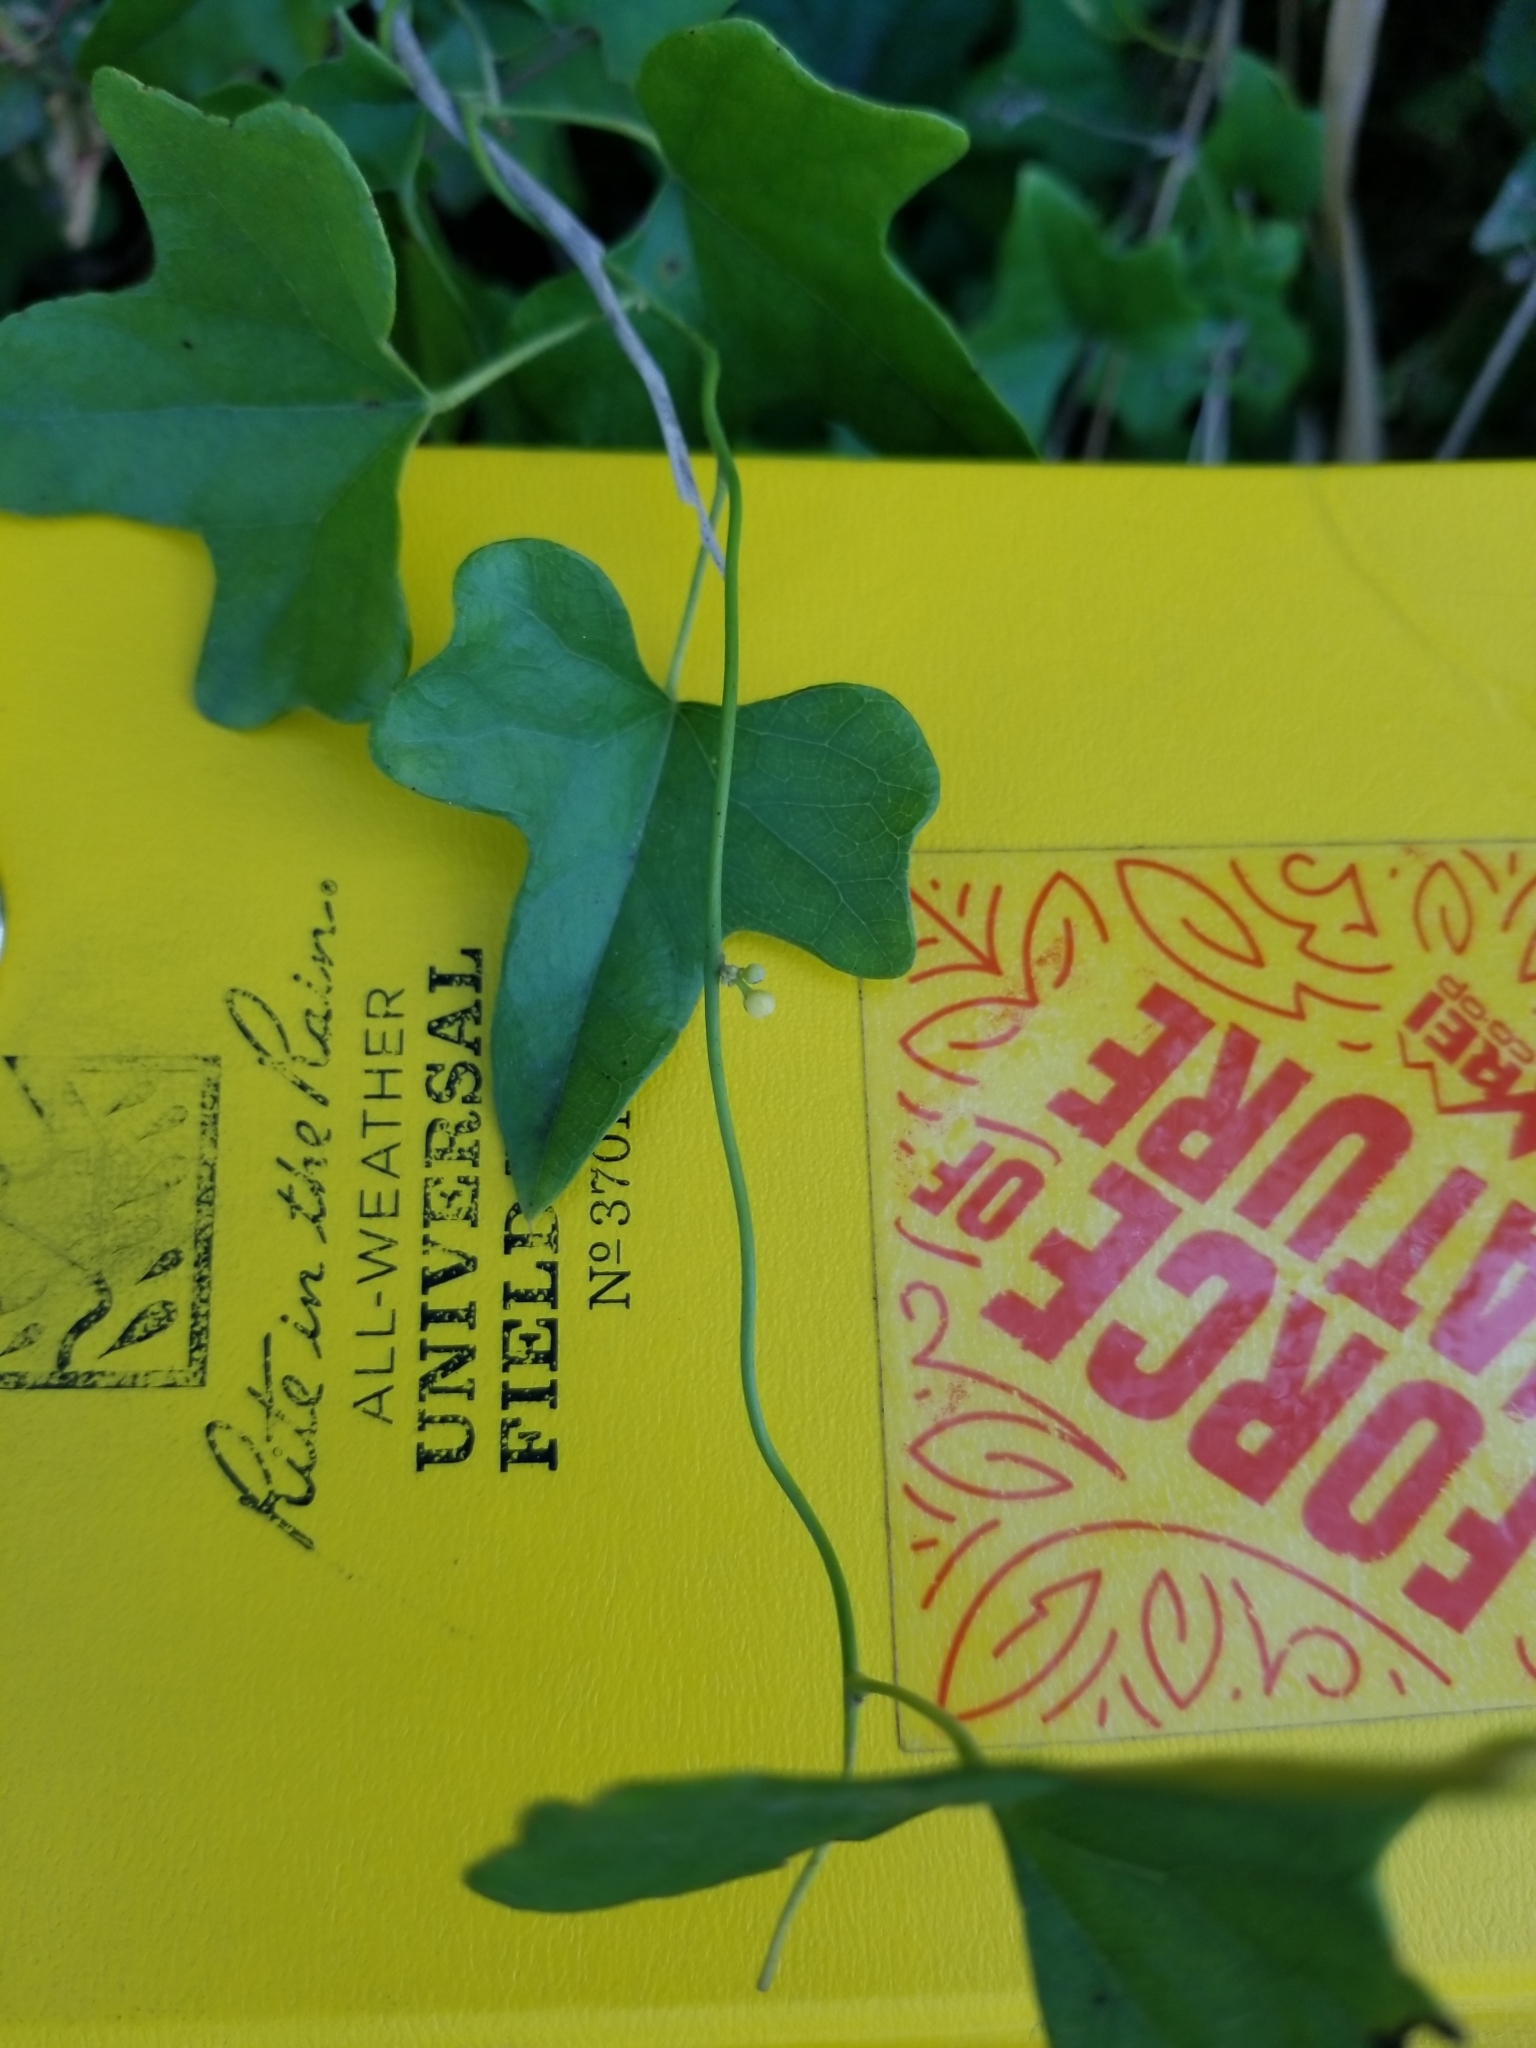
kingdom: Plantae
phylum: Tracheophyta
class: Magnoliopsida
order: Ranunculales
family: Menispermaceae
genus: Cocculus
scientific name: Cocculus carolinus
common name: Carolina moonseed
